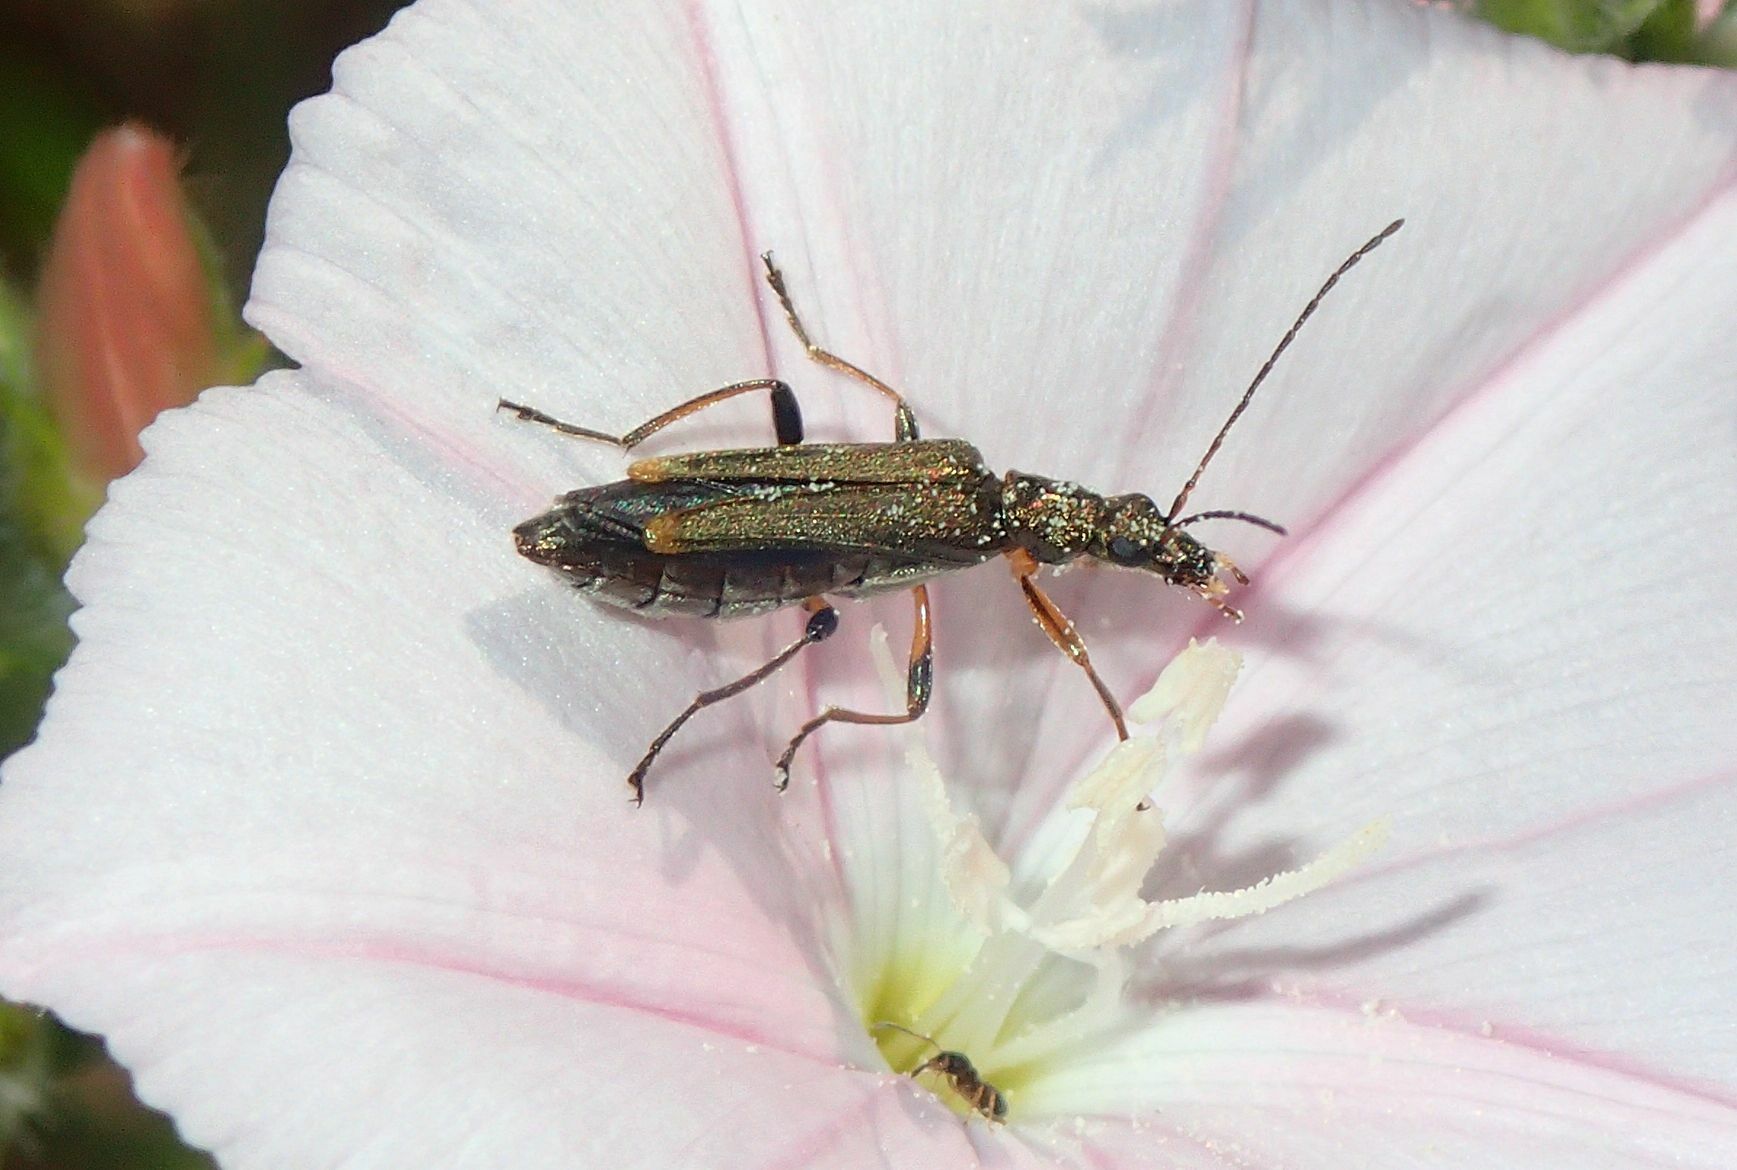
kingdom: Animalia
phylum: Arthropoda
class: Insecta
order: Coleoptera
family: Oedemeridae
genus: Oedemera
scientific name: Oedemera barbara
